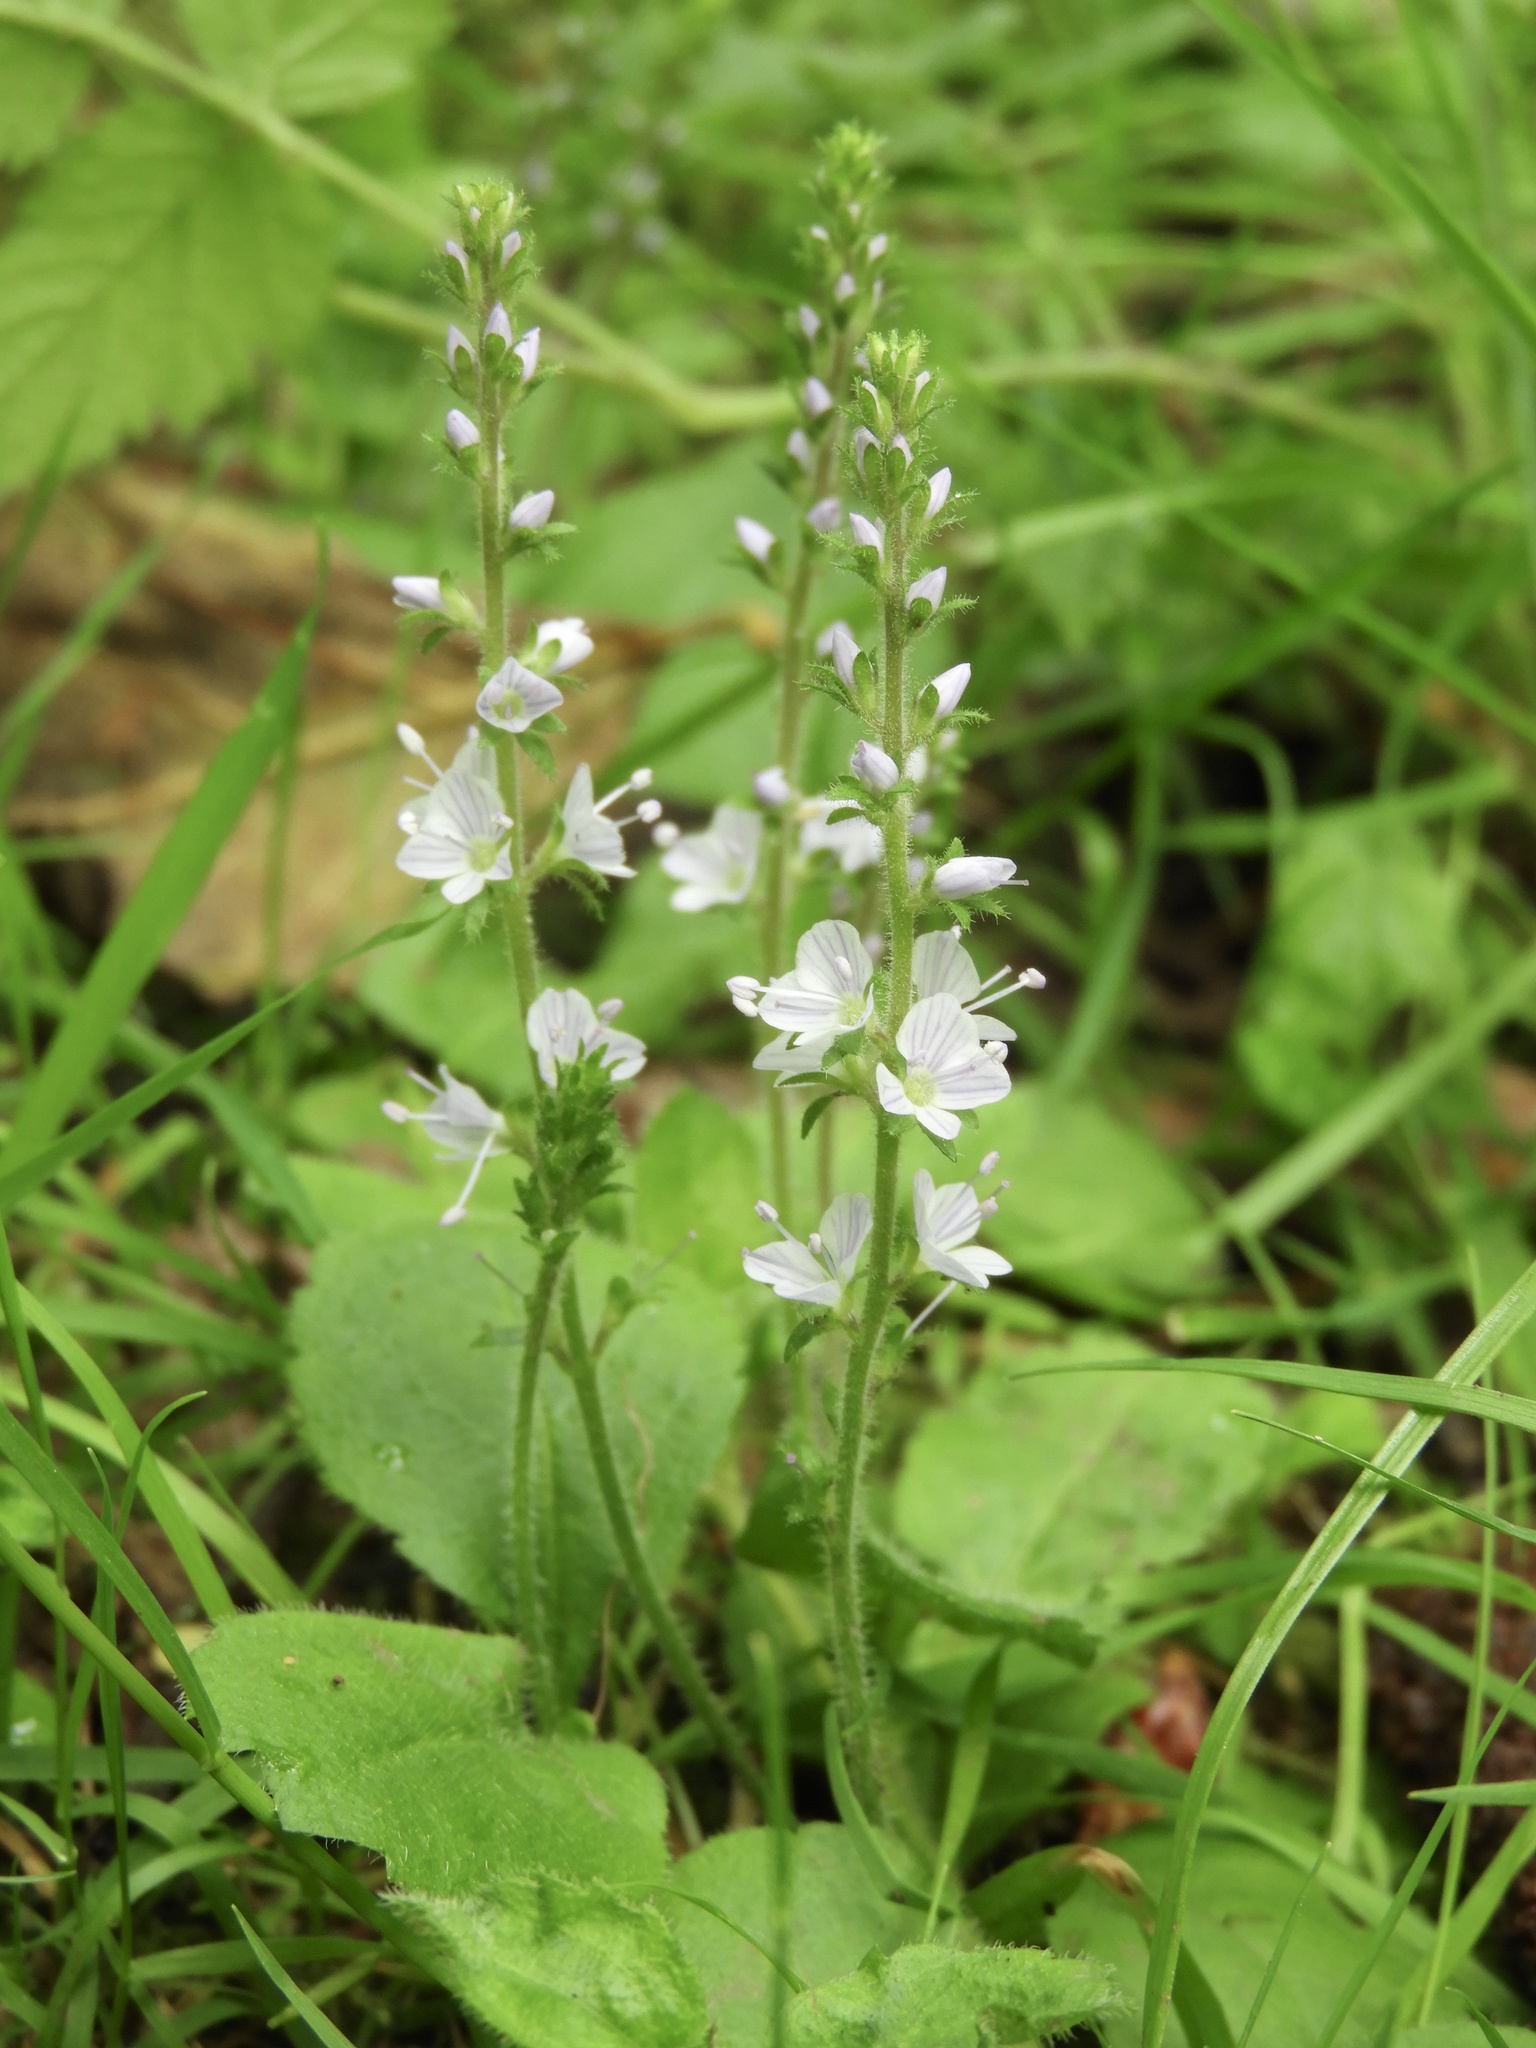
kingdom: Plantae
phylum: Tracheophyta
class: Magnoliopsida
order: Lamiales
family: Plantaginaceae
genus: Veronica
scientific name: Veronica officinalis
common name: Common speedwell
